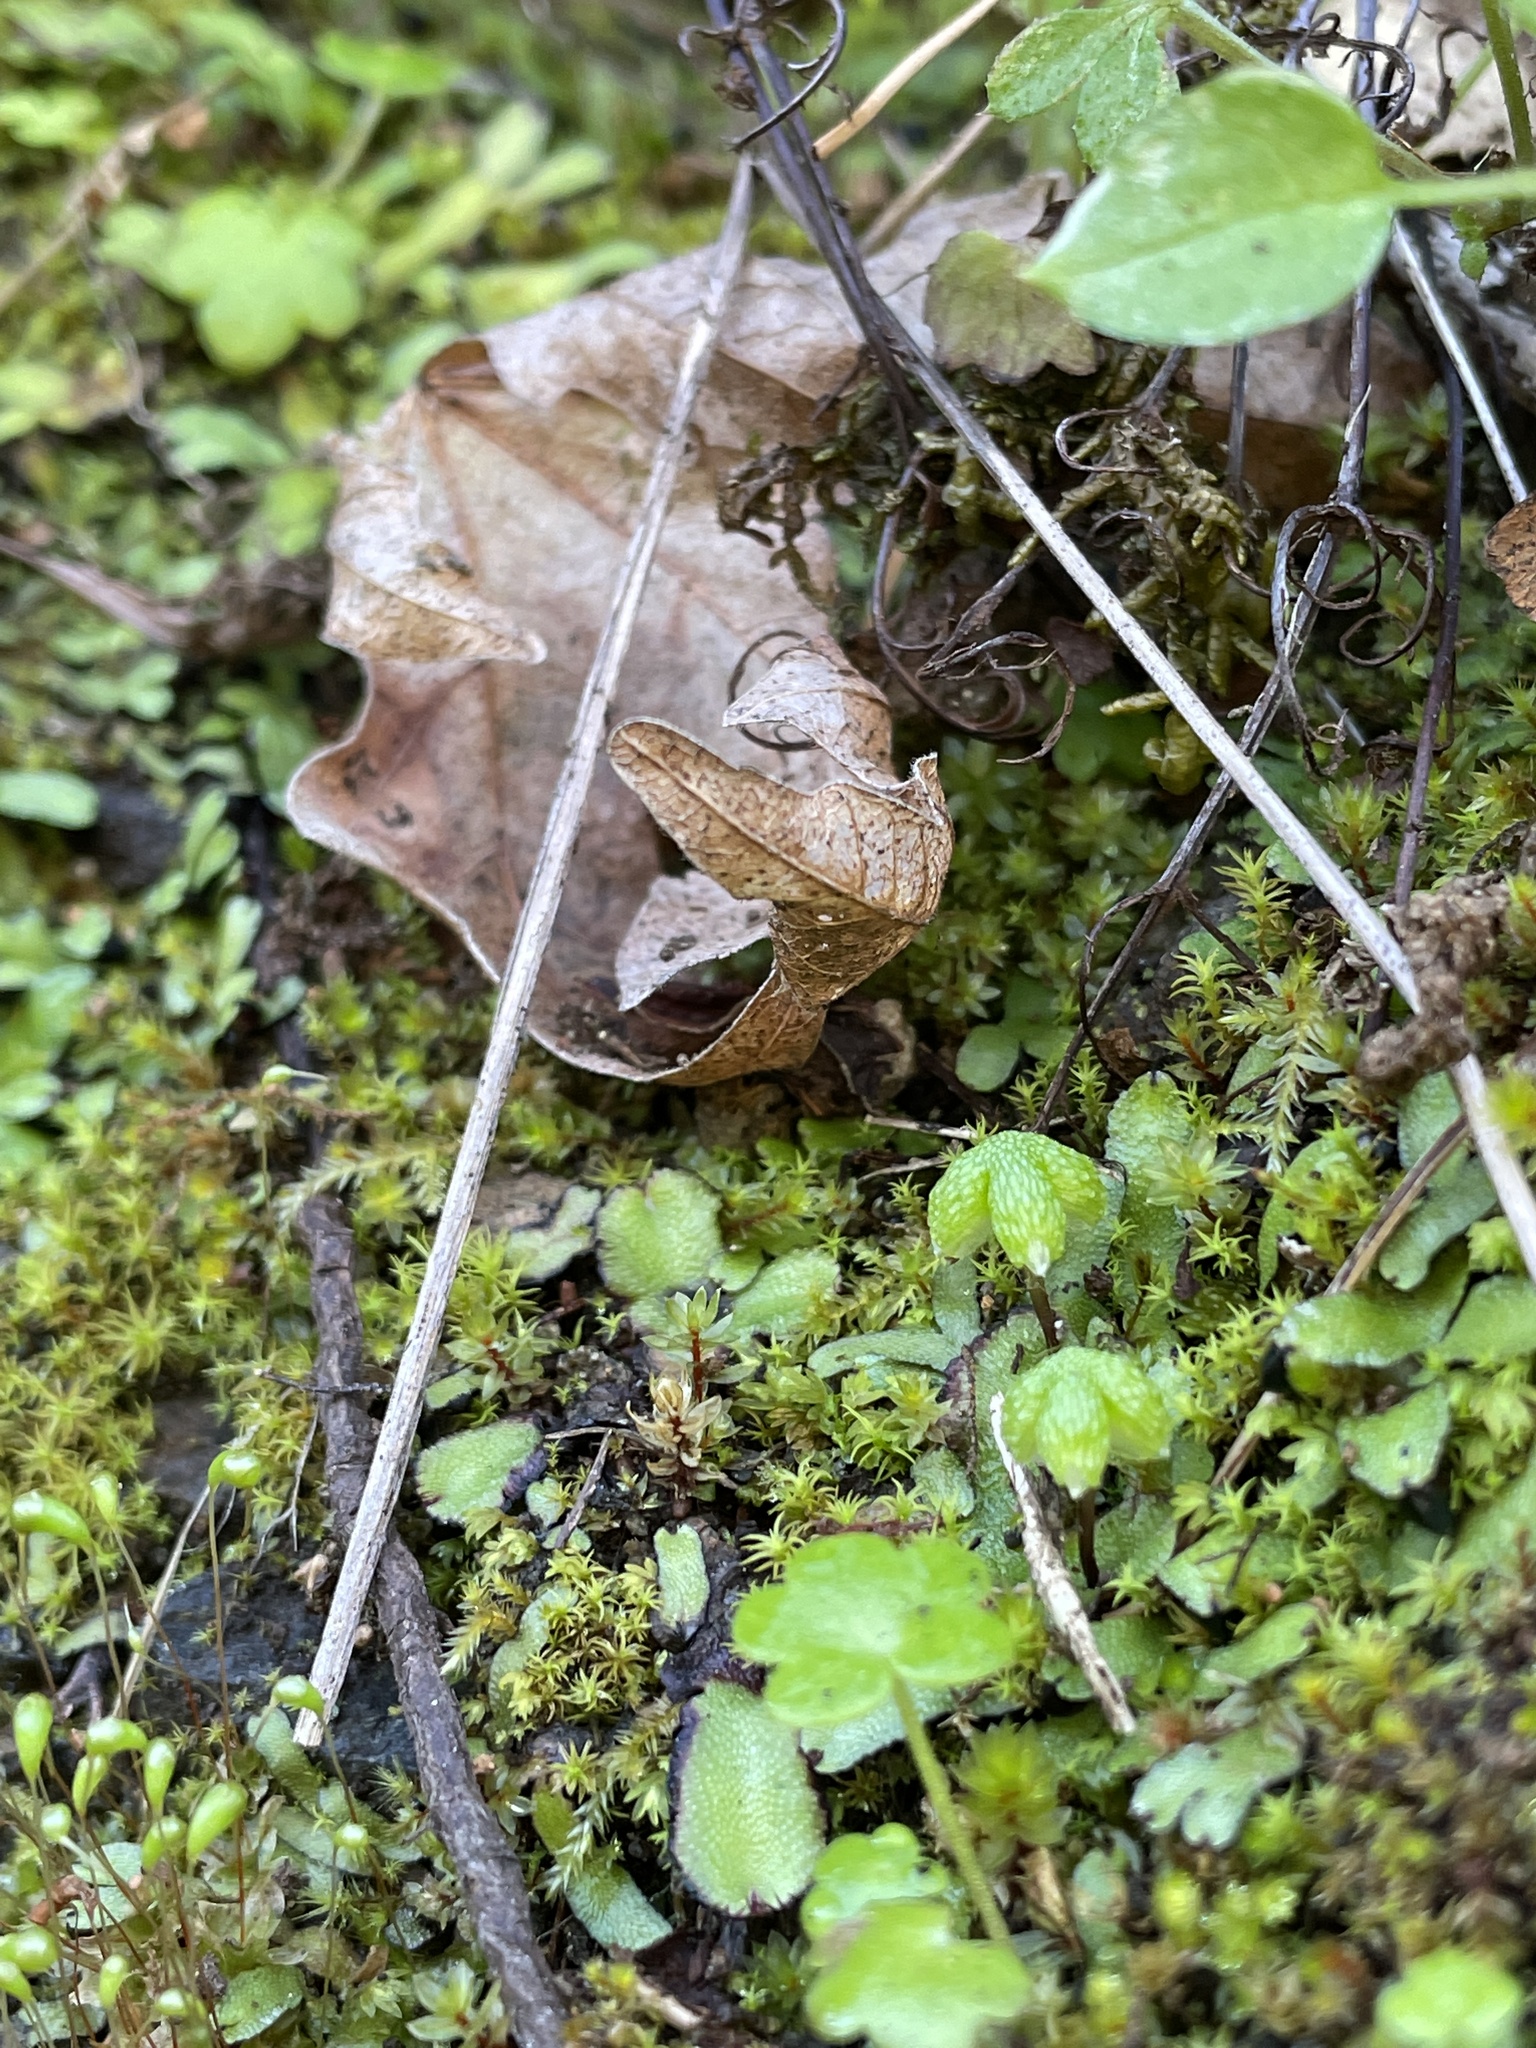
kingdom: Plantae
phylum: Marchantiophyta
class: Marchantiopsida
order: Marchantiales
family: Aytoniaceae
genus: Asterella
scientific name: Asterella californica
